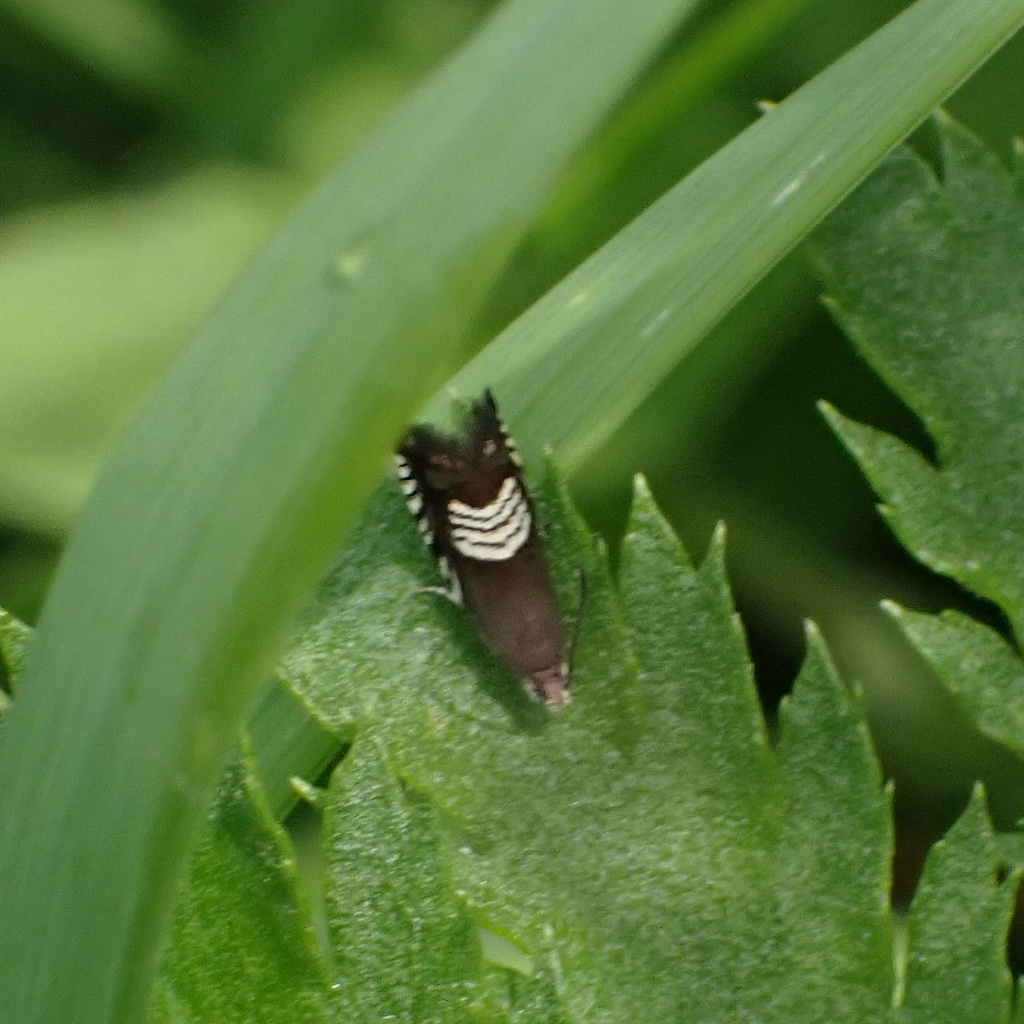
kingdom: Animalia
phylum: Arthropoda
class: Insecta
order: Lepidoptera
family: Tortricidae
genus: Grapholita
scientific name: Grapholita compositella
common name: Triple-stripe piercer
